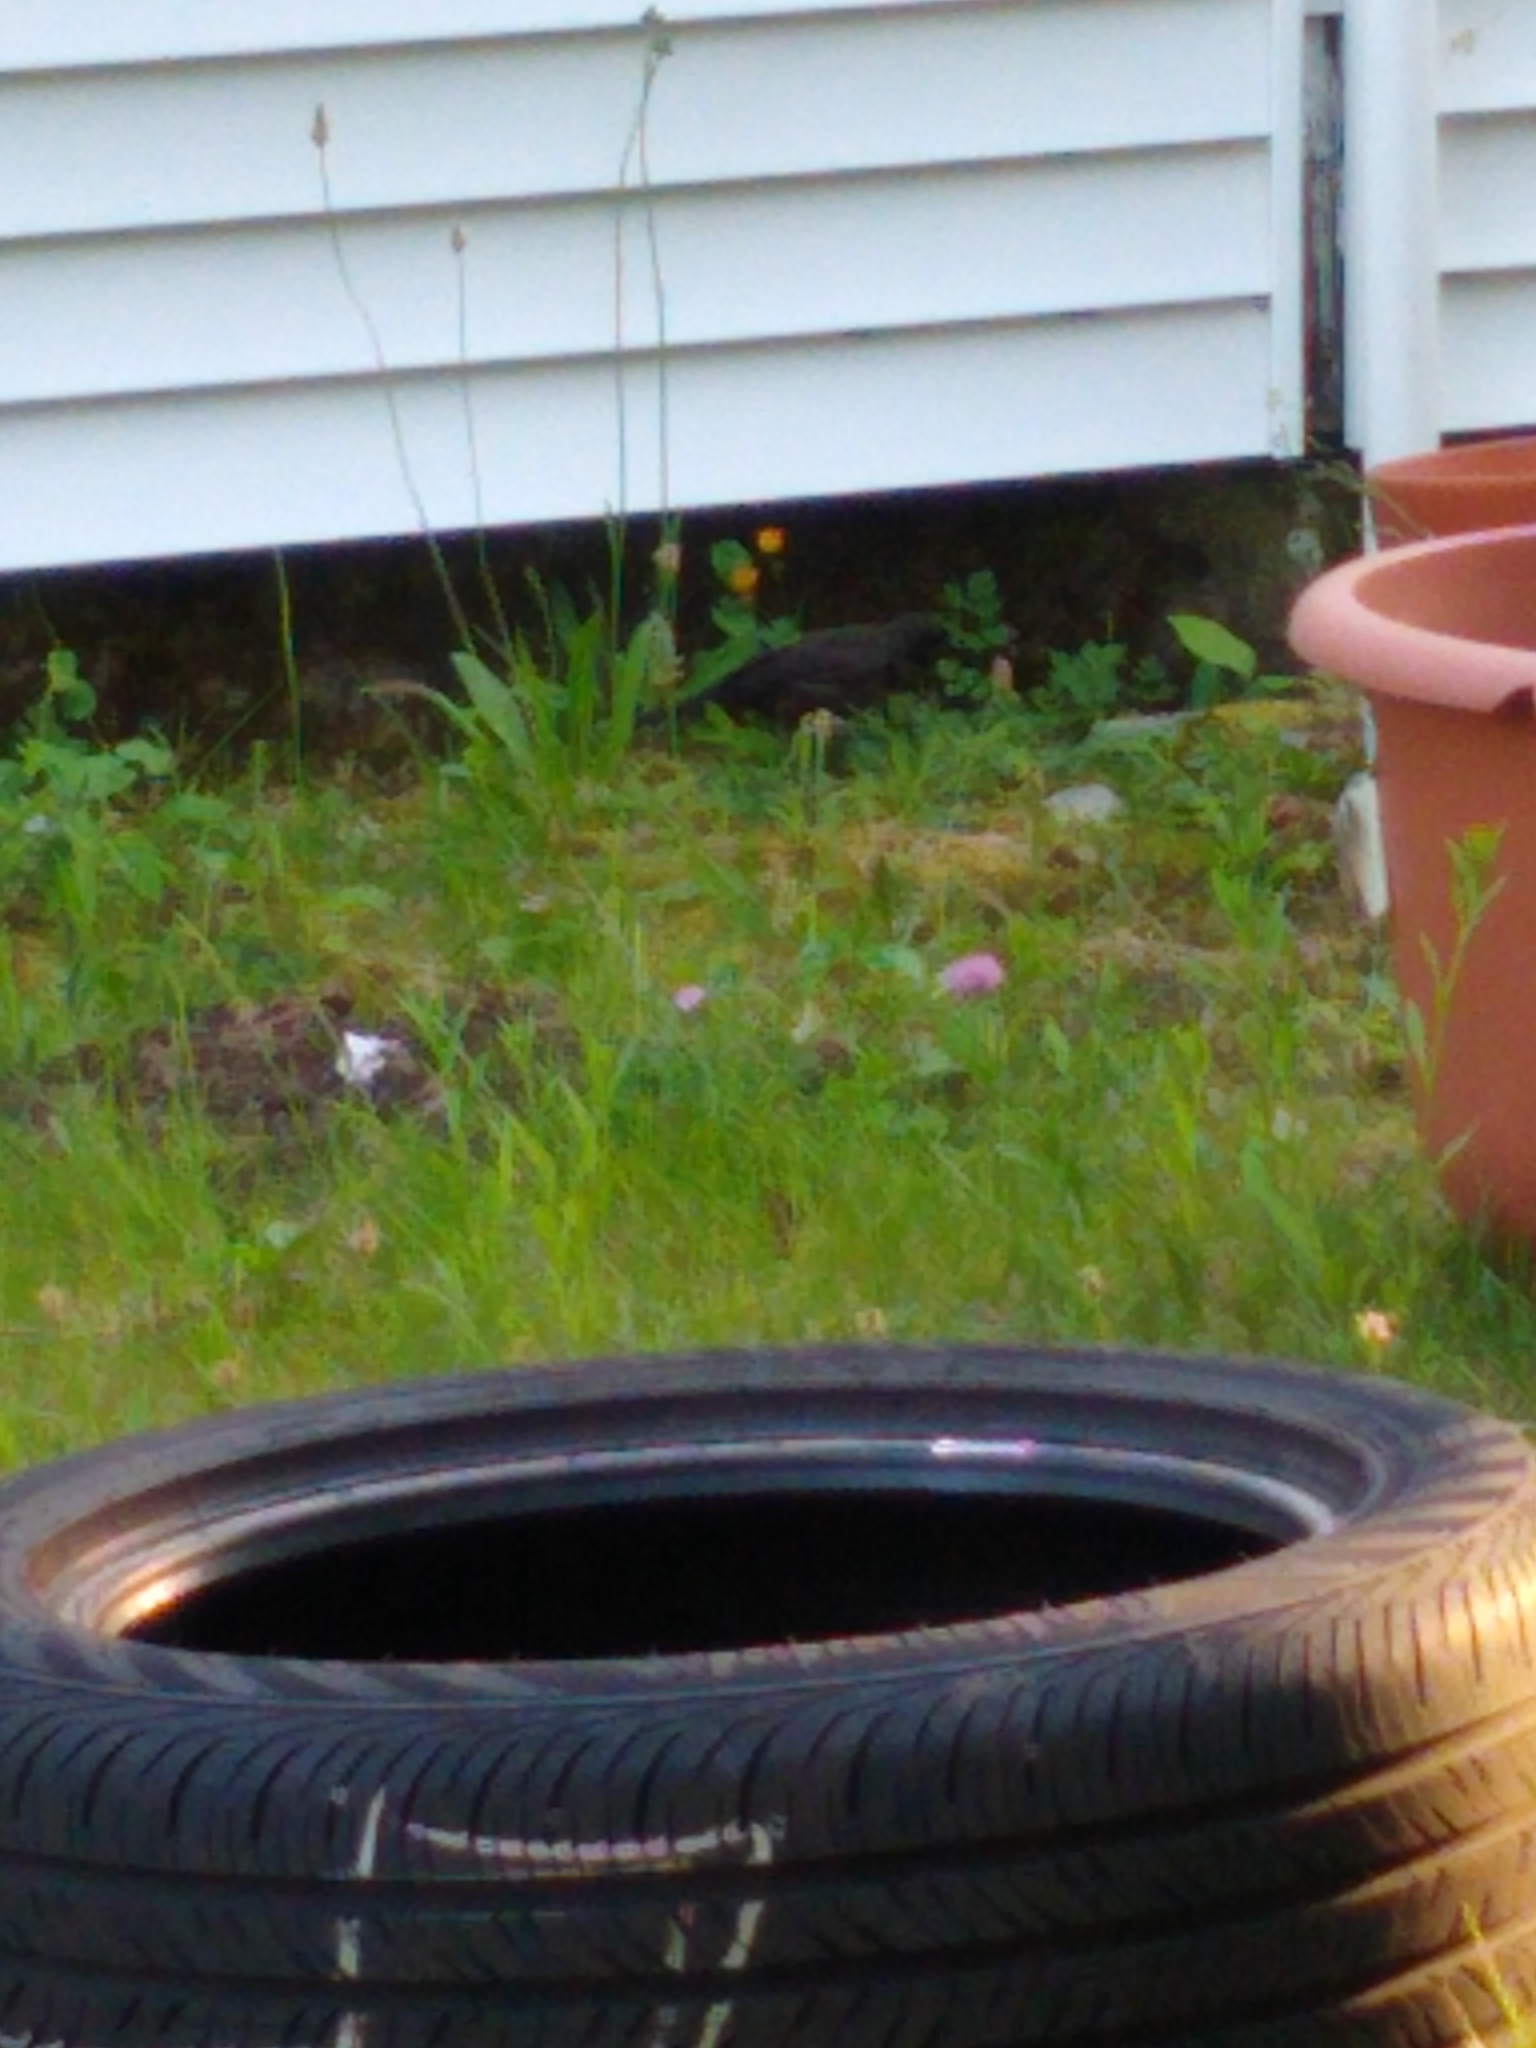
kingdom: Animalia
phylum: Chordata
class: Aves
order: Passeriformes
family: Icteridae
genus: Quiscalus
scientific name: Quiscalus quiscula
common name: Common grackle
